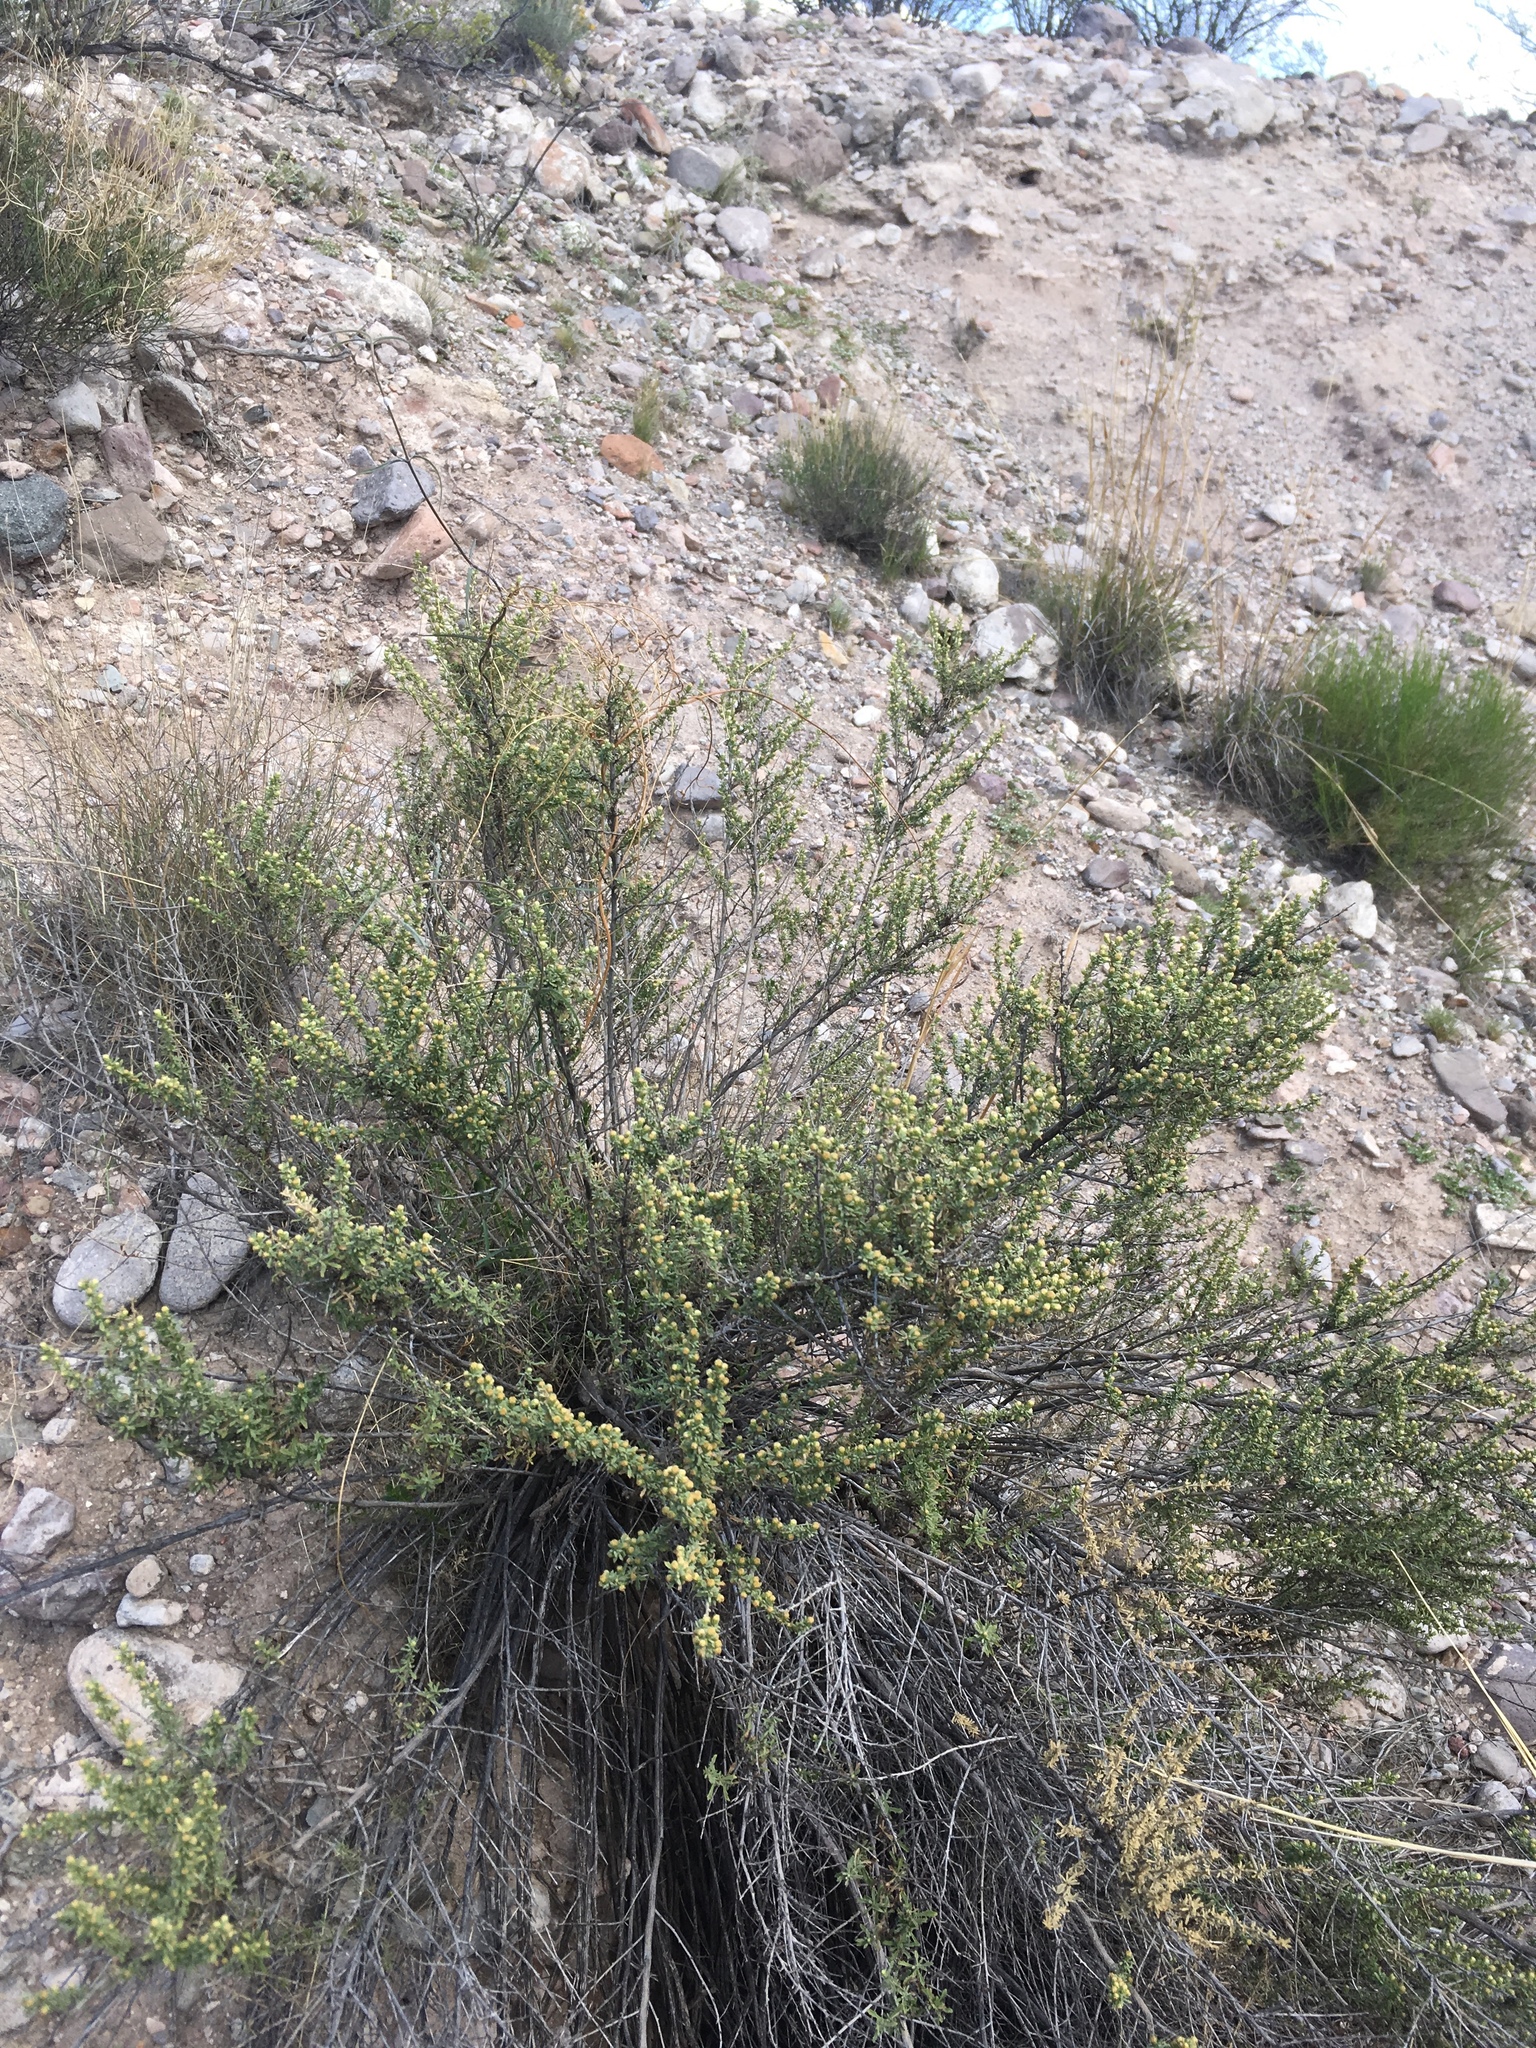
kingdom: Plantae
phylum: Tracheophyta
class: Magnoliopsida
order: Asterales
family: Asteraceae
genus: Baccharis
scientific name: Baccharis pteronioides
